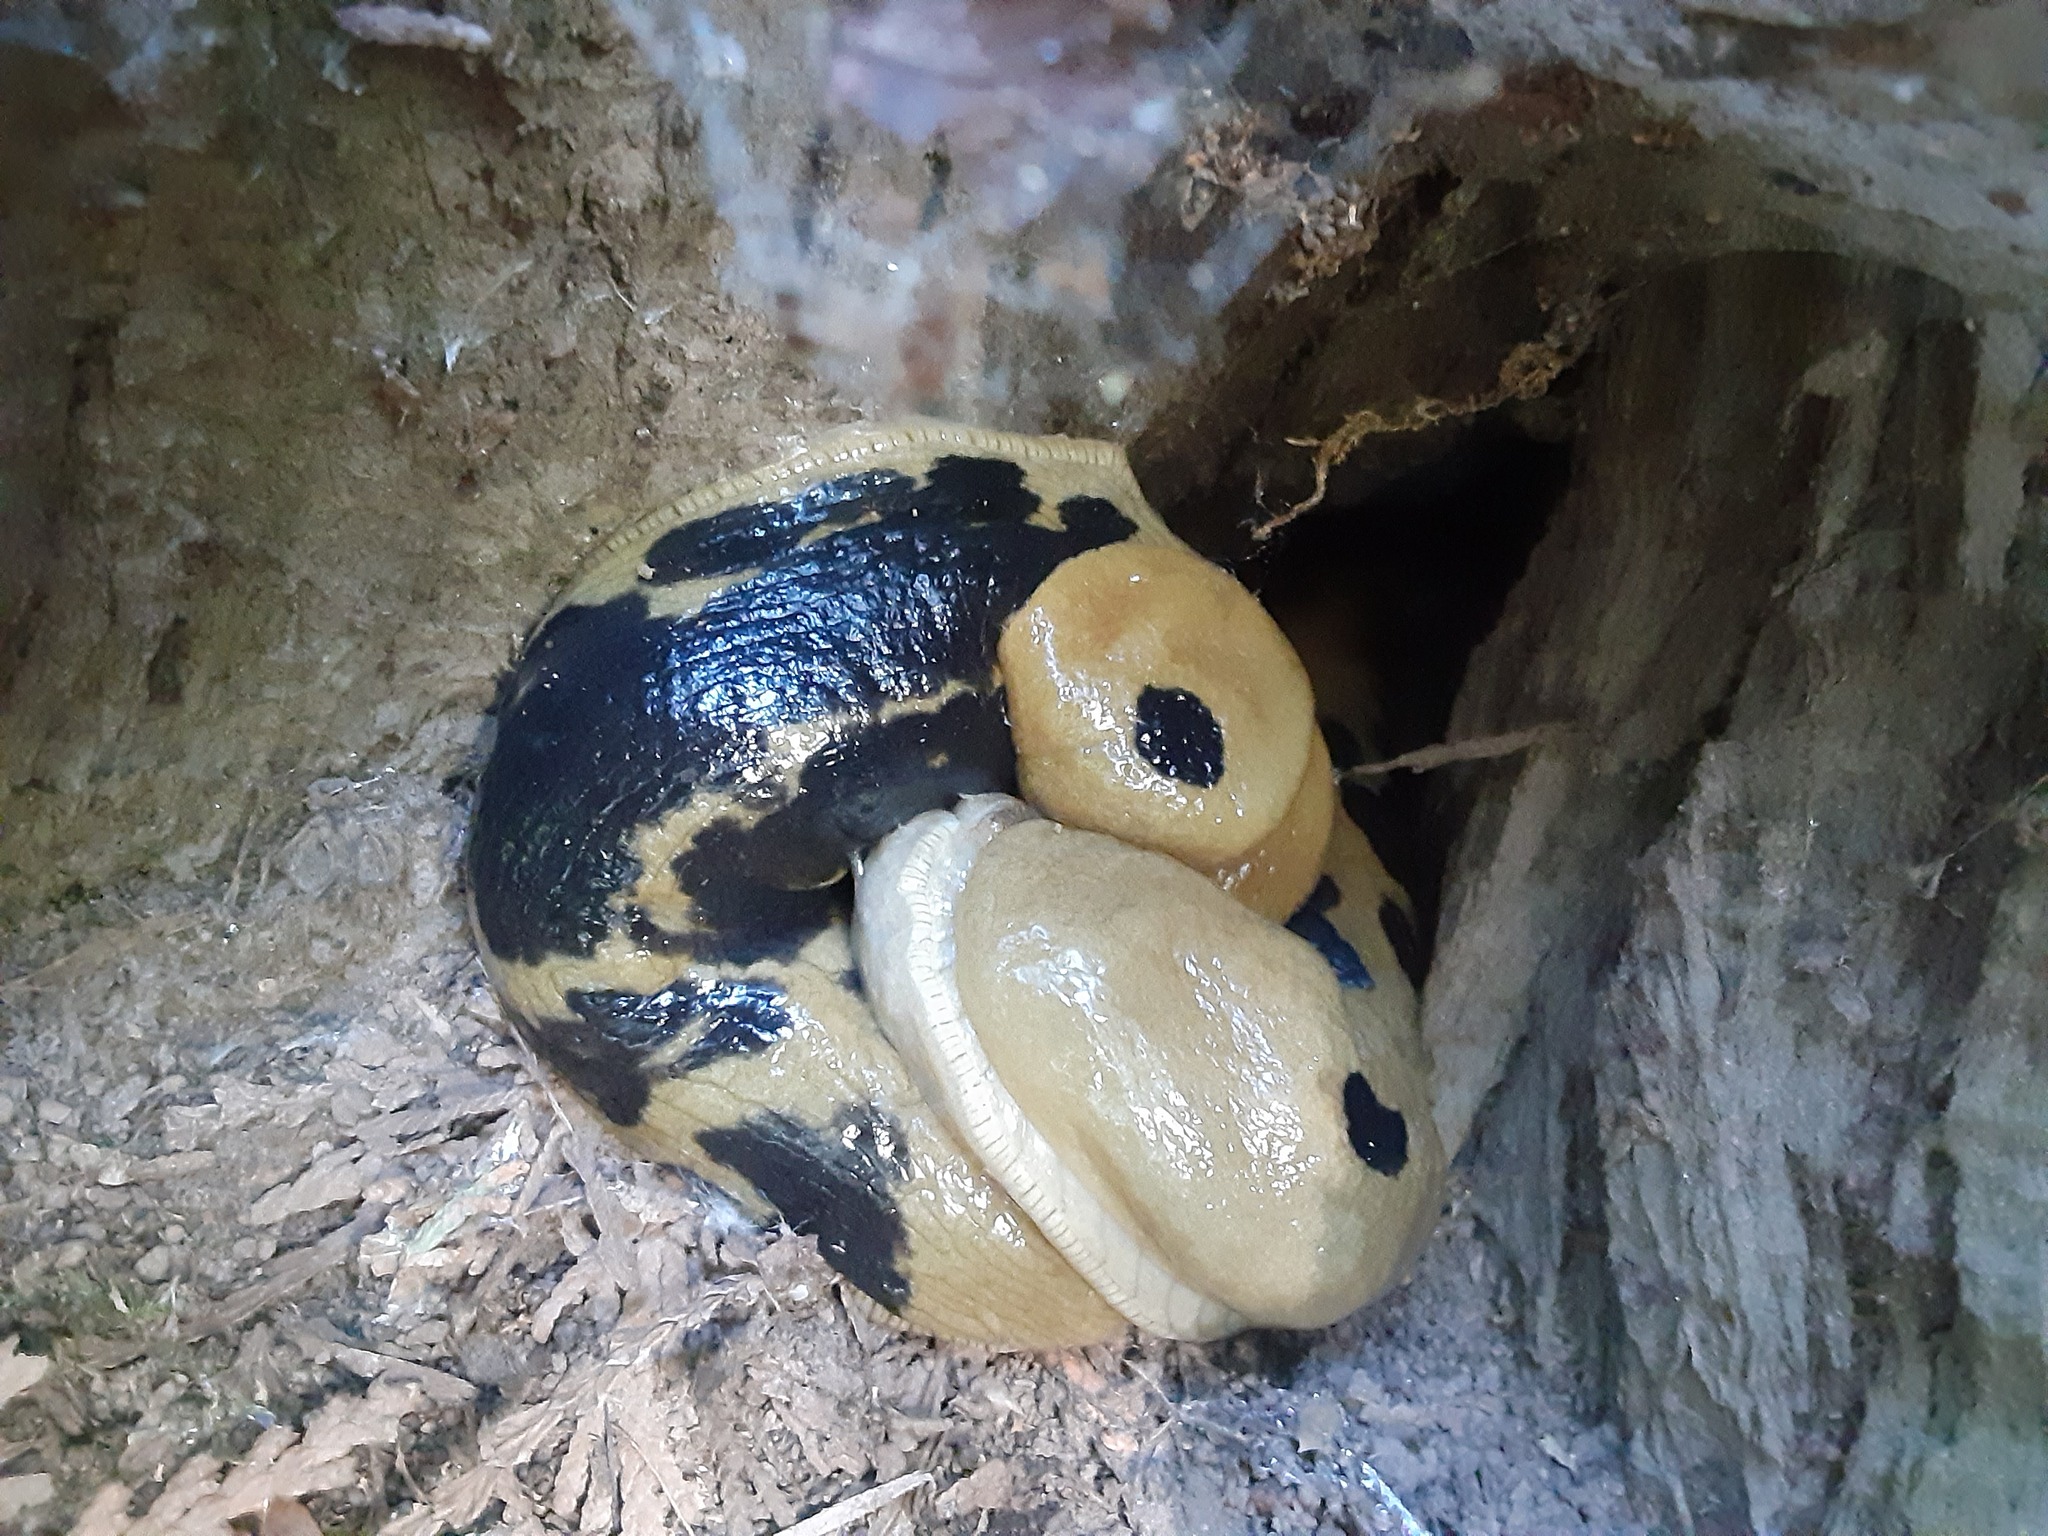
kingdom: Animalia
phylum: Mollusca
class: Gastropoda
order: Stylommatophora
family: Ariolimacidae
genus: Ariolimax
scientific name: Ariolimax columbianus
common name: Pacific banana slug
